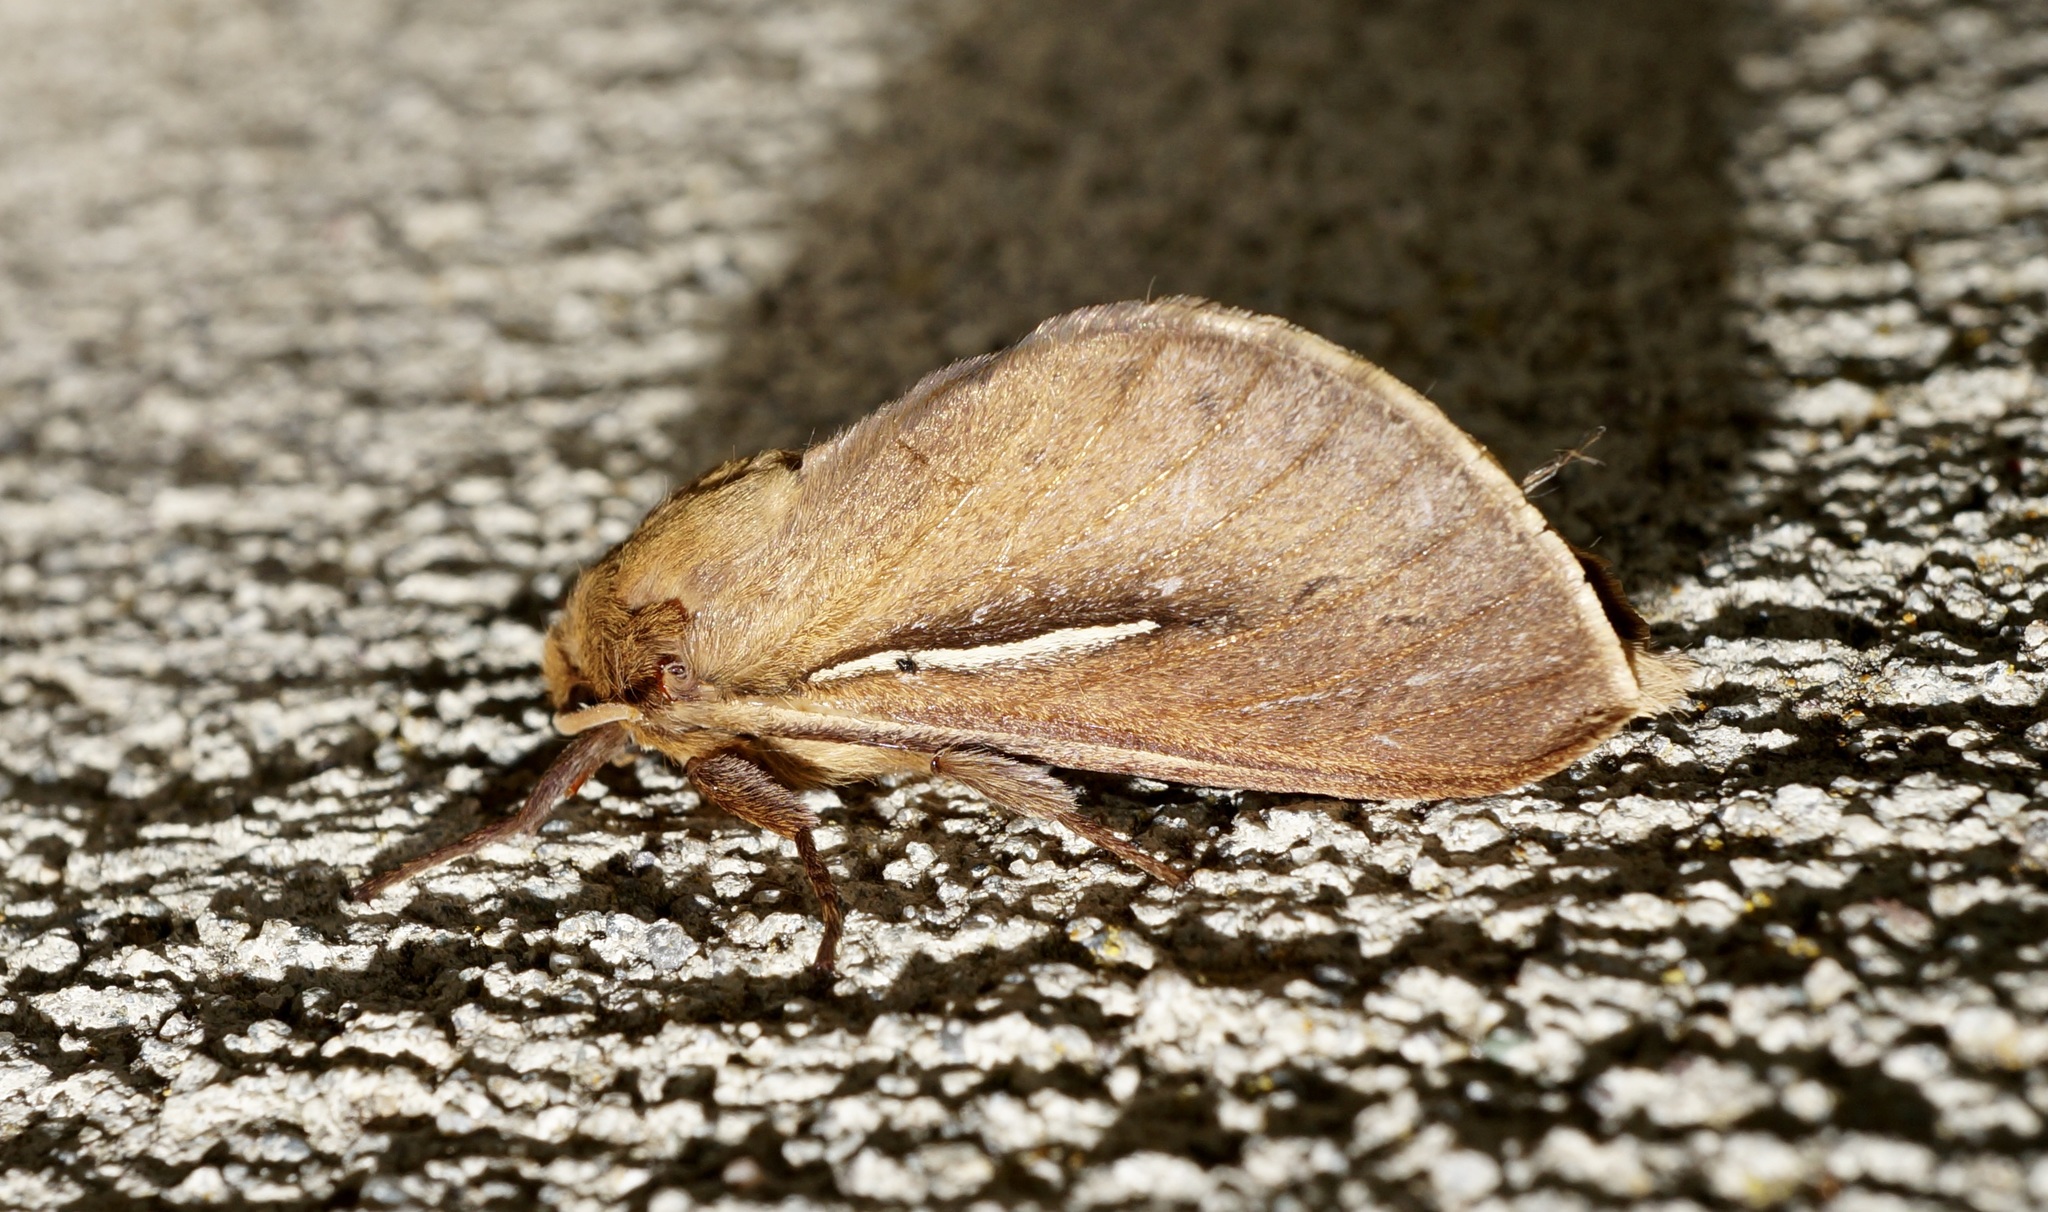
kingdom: Animalia
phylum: Arthropoda
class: Insecta
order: Lepidoptera
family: Hepialidae
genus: Wiseana
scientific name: Wiseana umbraculatus
